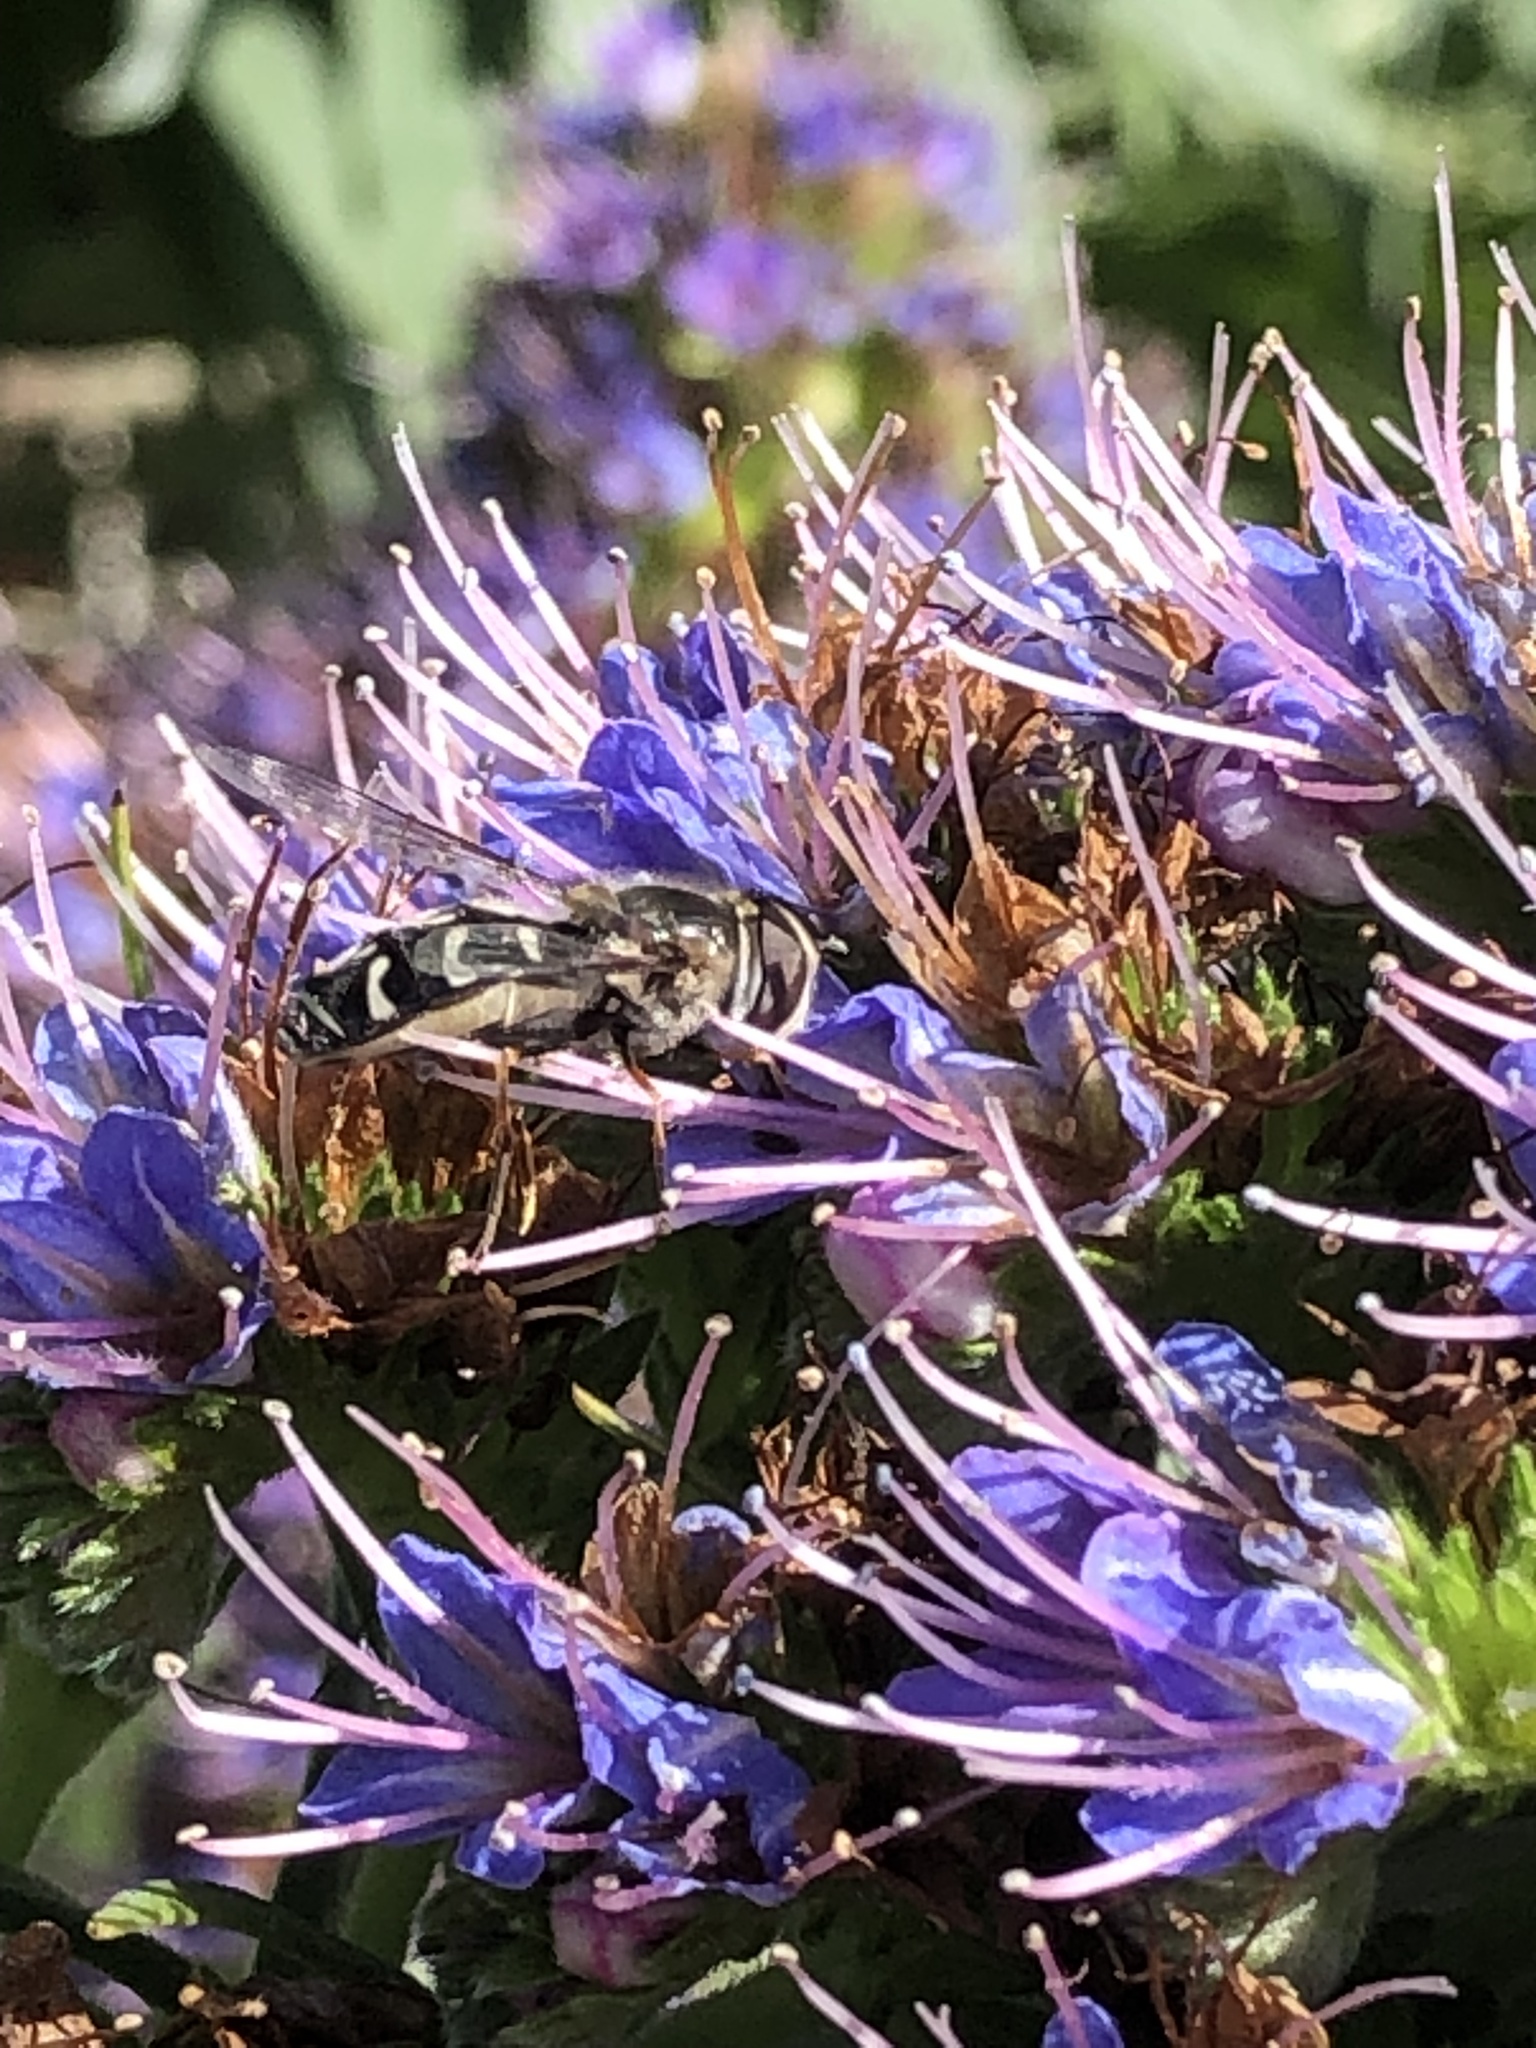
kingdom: Animalia
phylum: Arthropoda
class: Insecta
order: Diptera
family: Syrphidae
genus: Scaeva
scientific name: Scaeva affinis
